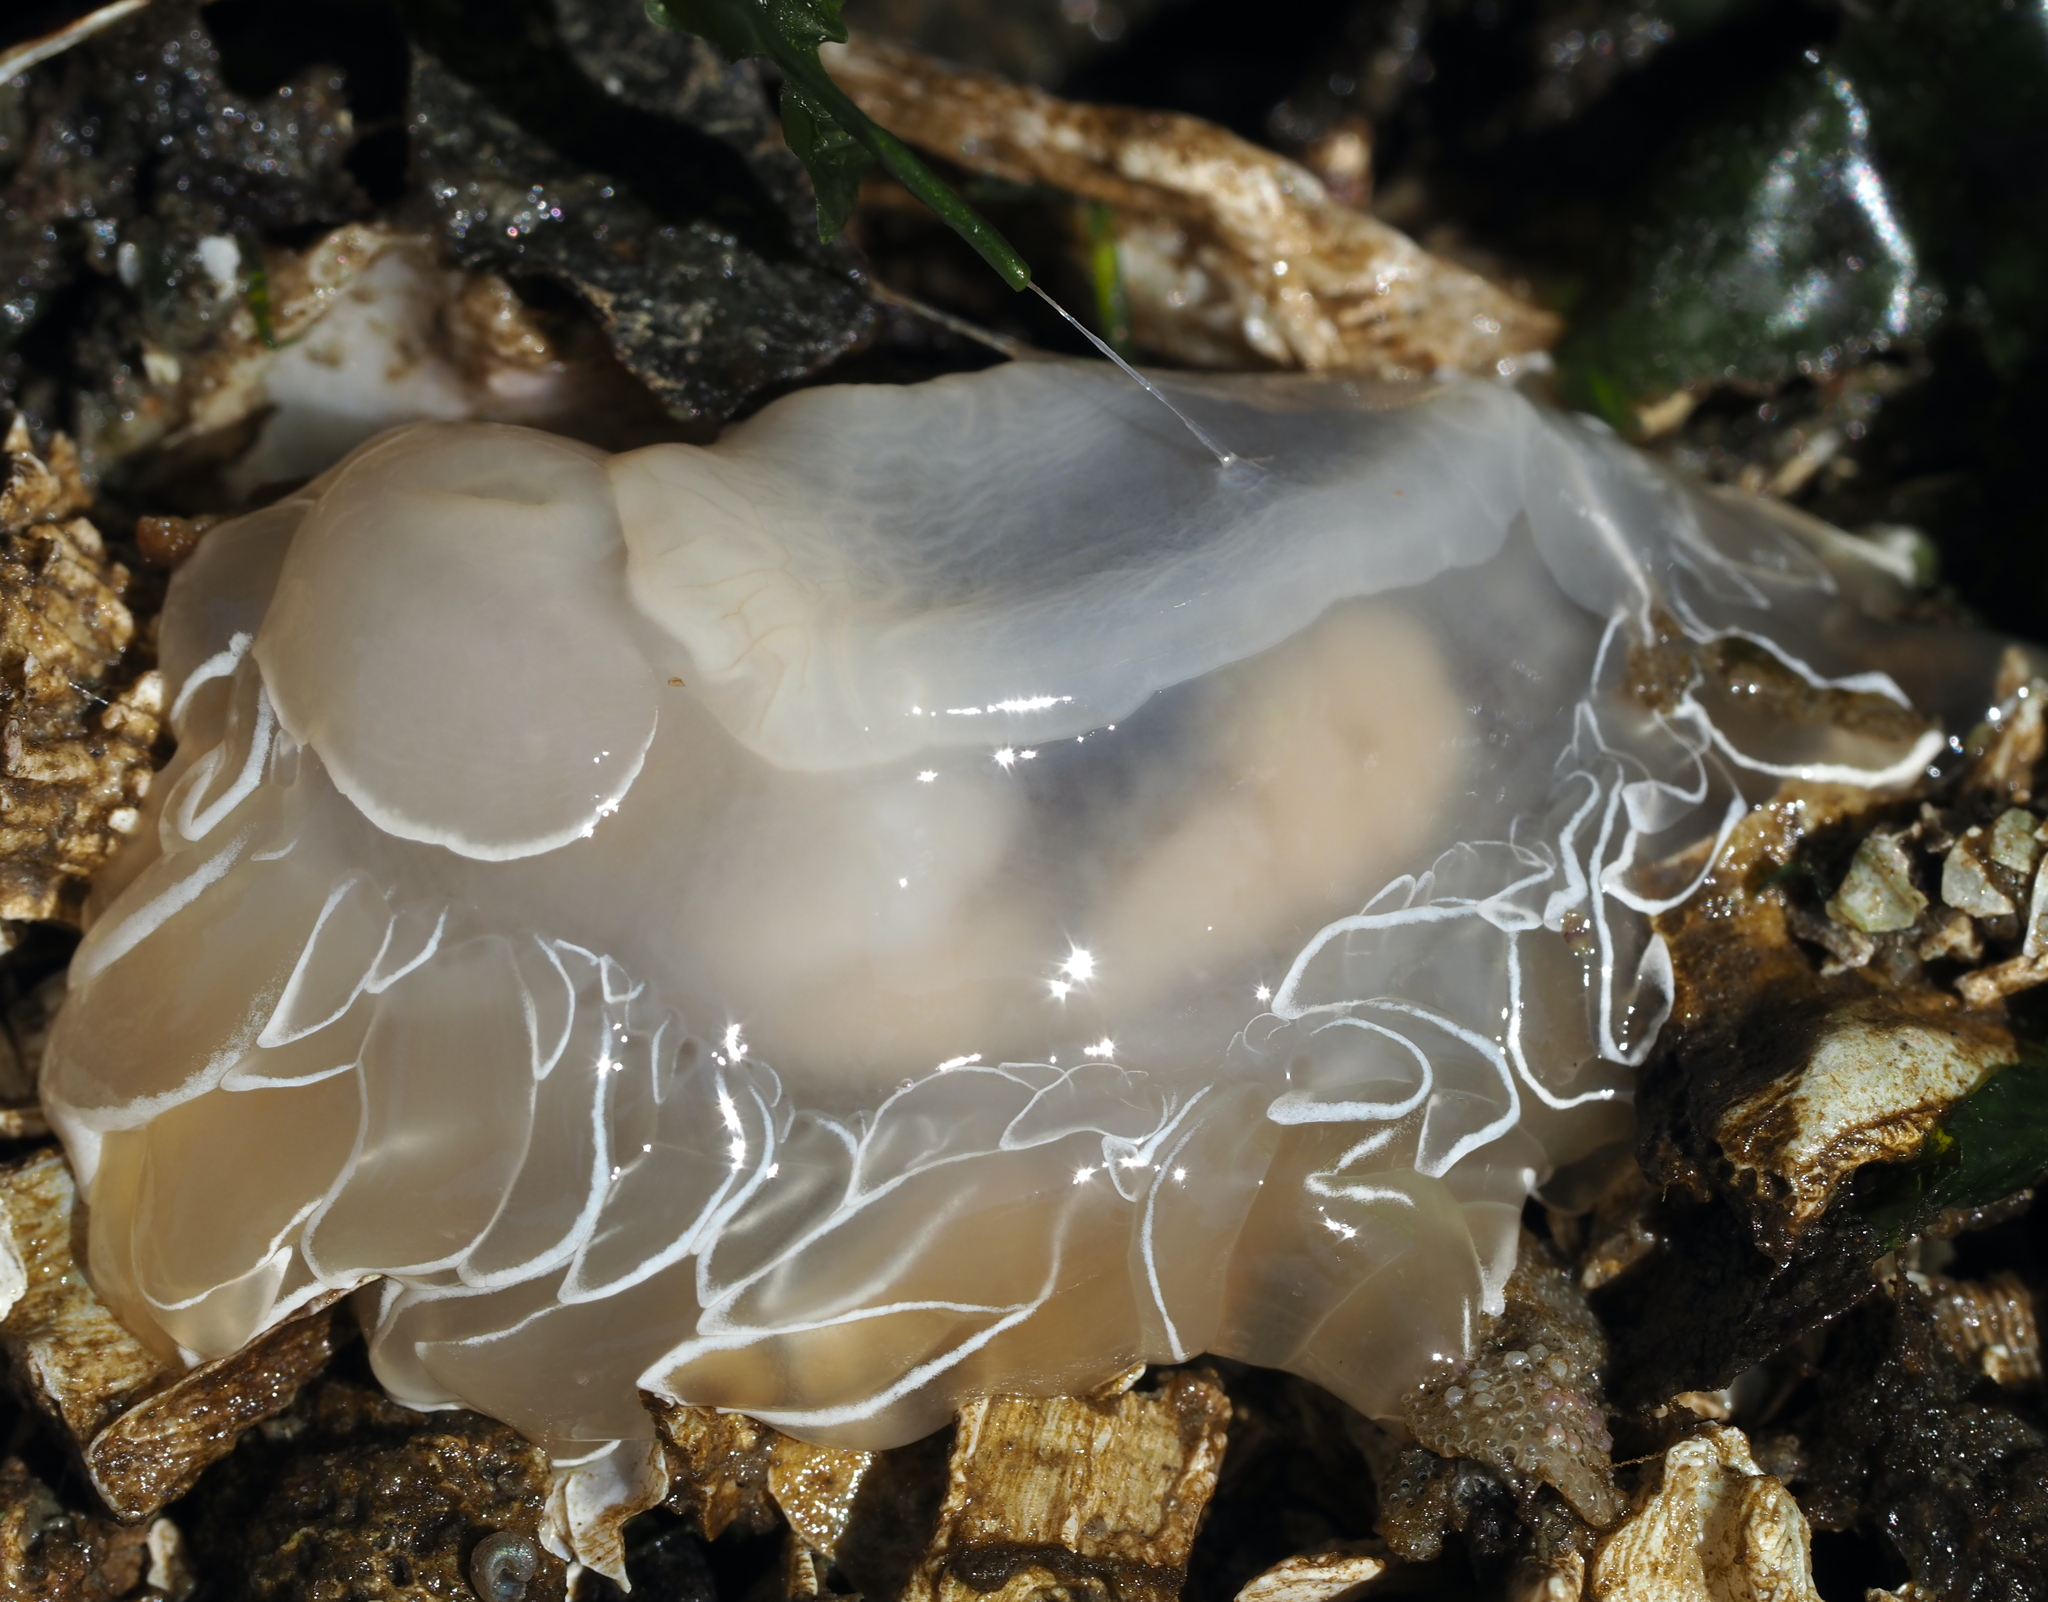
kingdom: Animalia
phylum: Mollusca
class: Gastropoda
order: Nudibranchia
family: Dironidae
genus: Dirona
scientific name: Dirona albolineata
